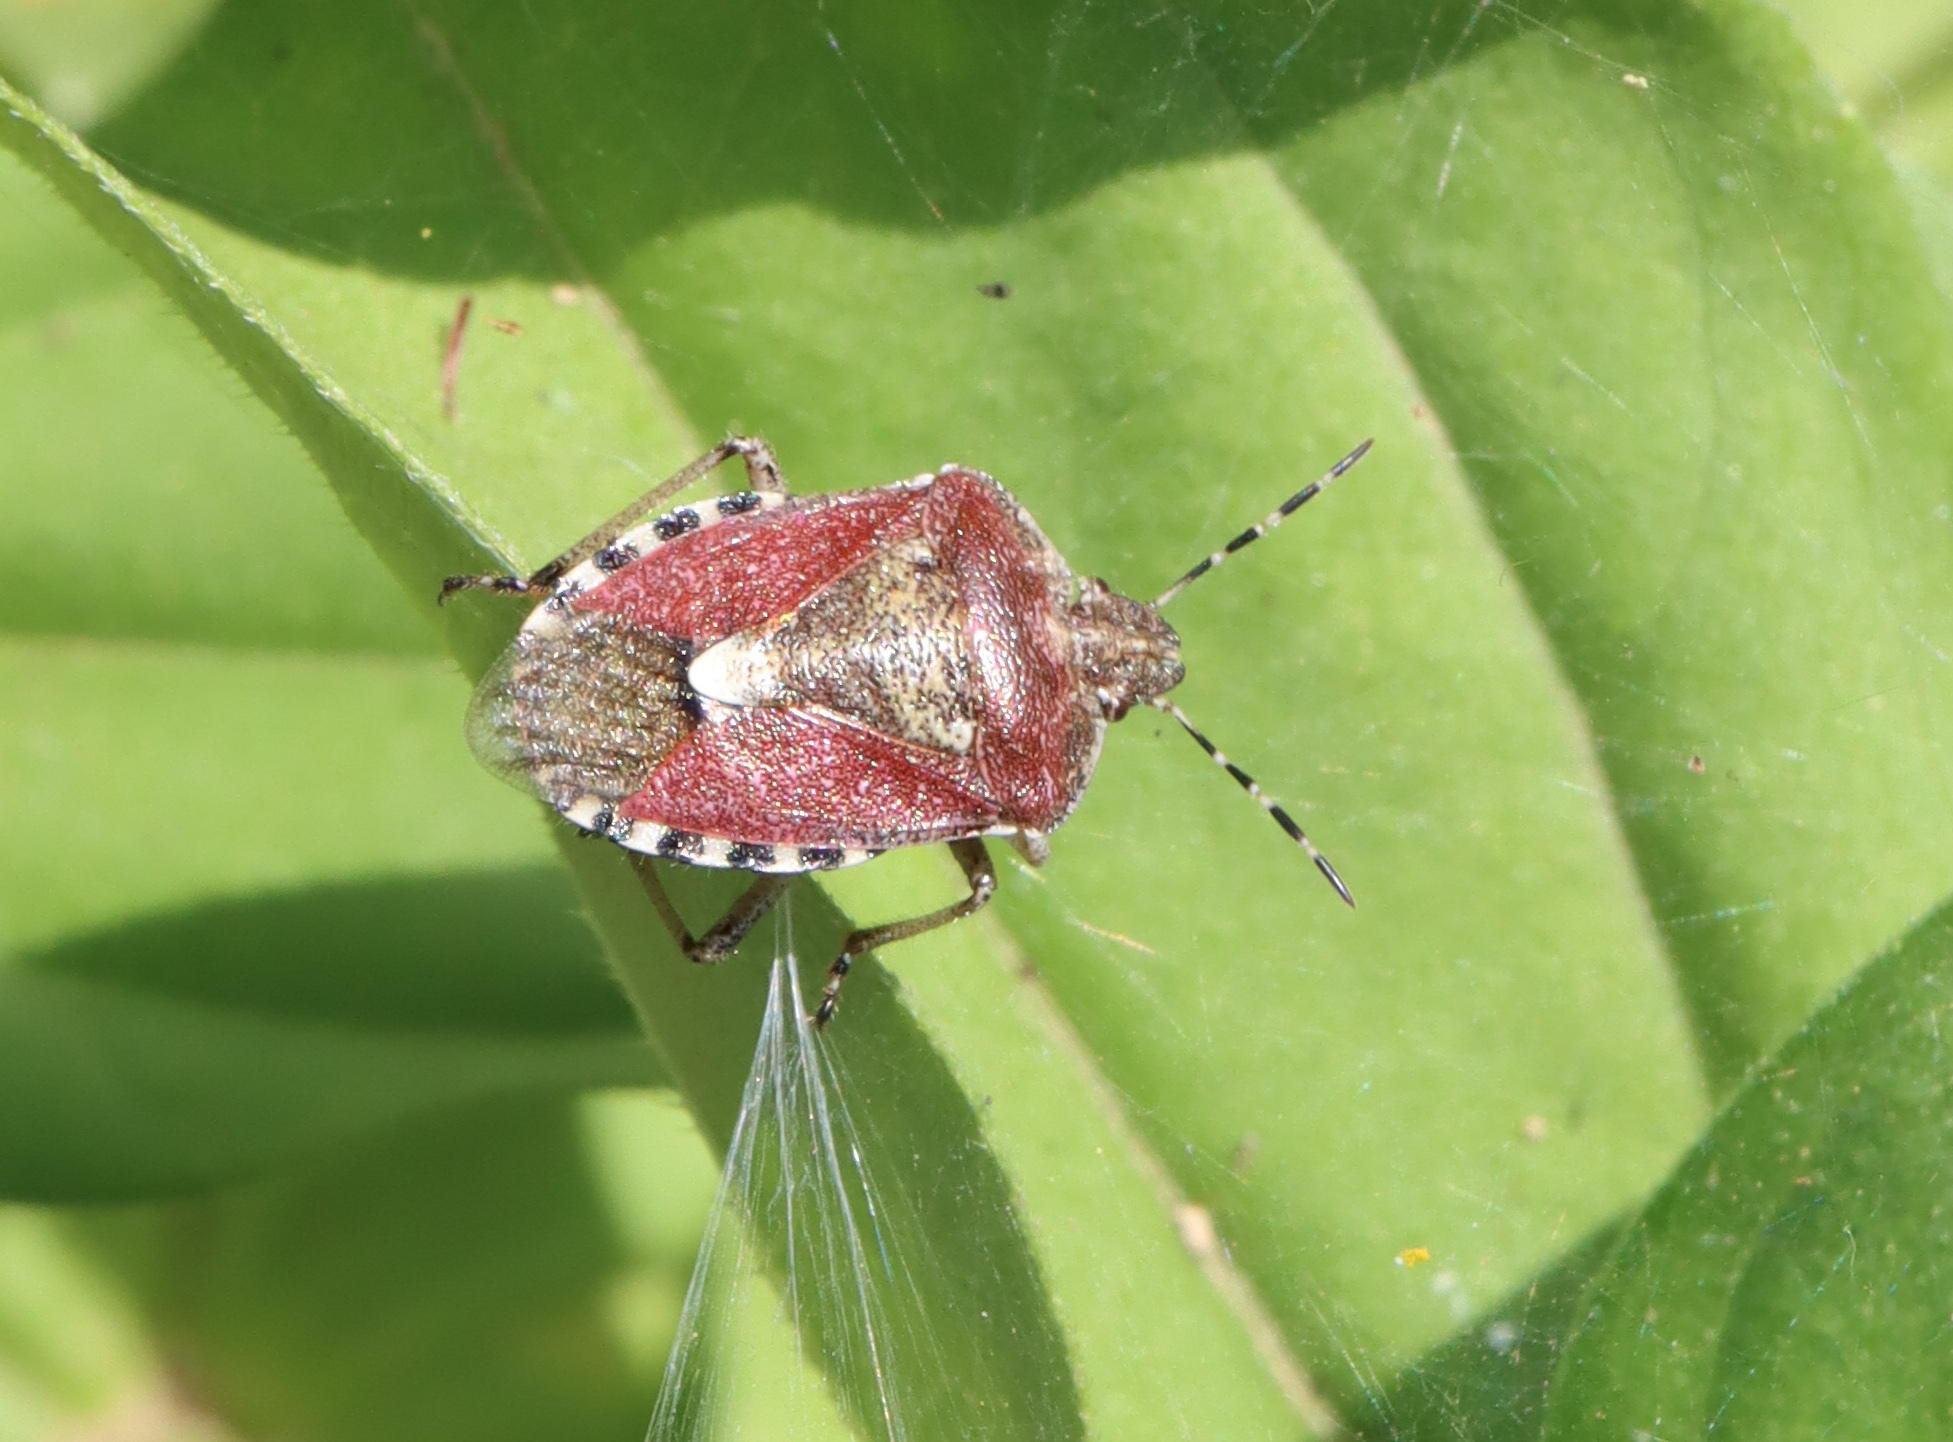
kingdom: Animalia
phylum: Arthropoda
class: Insecta
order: Hemiptera
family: Pentatomidae
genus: Dolycoris
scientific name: Dolycoris baccarum
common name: Sloe bug
